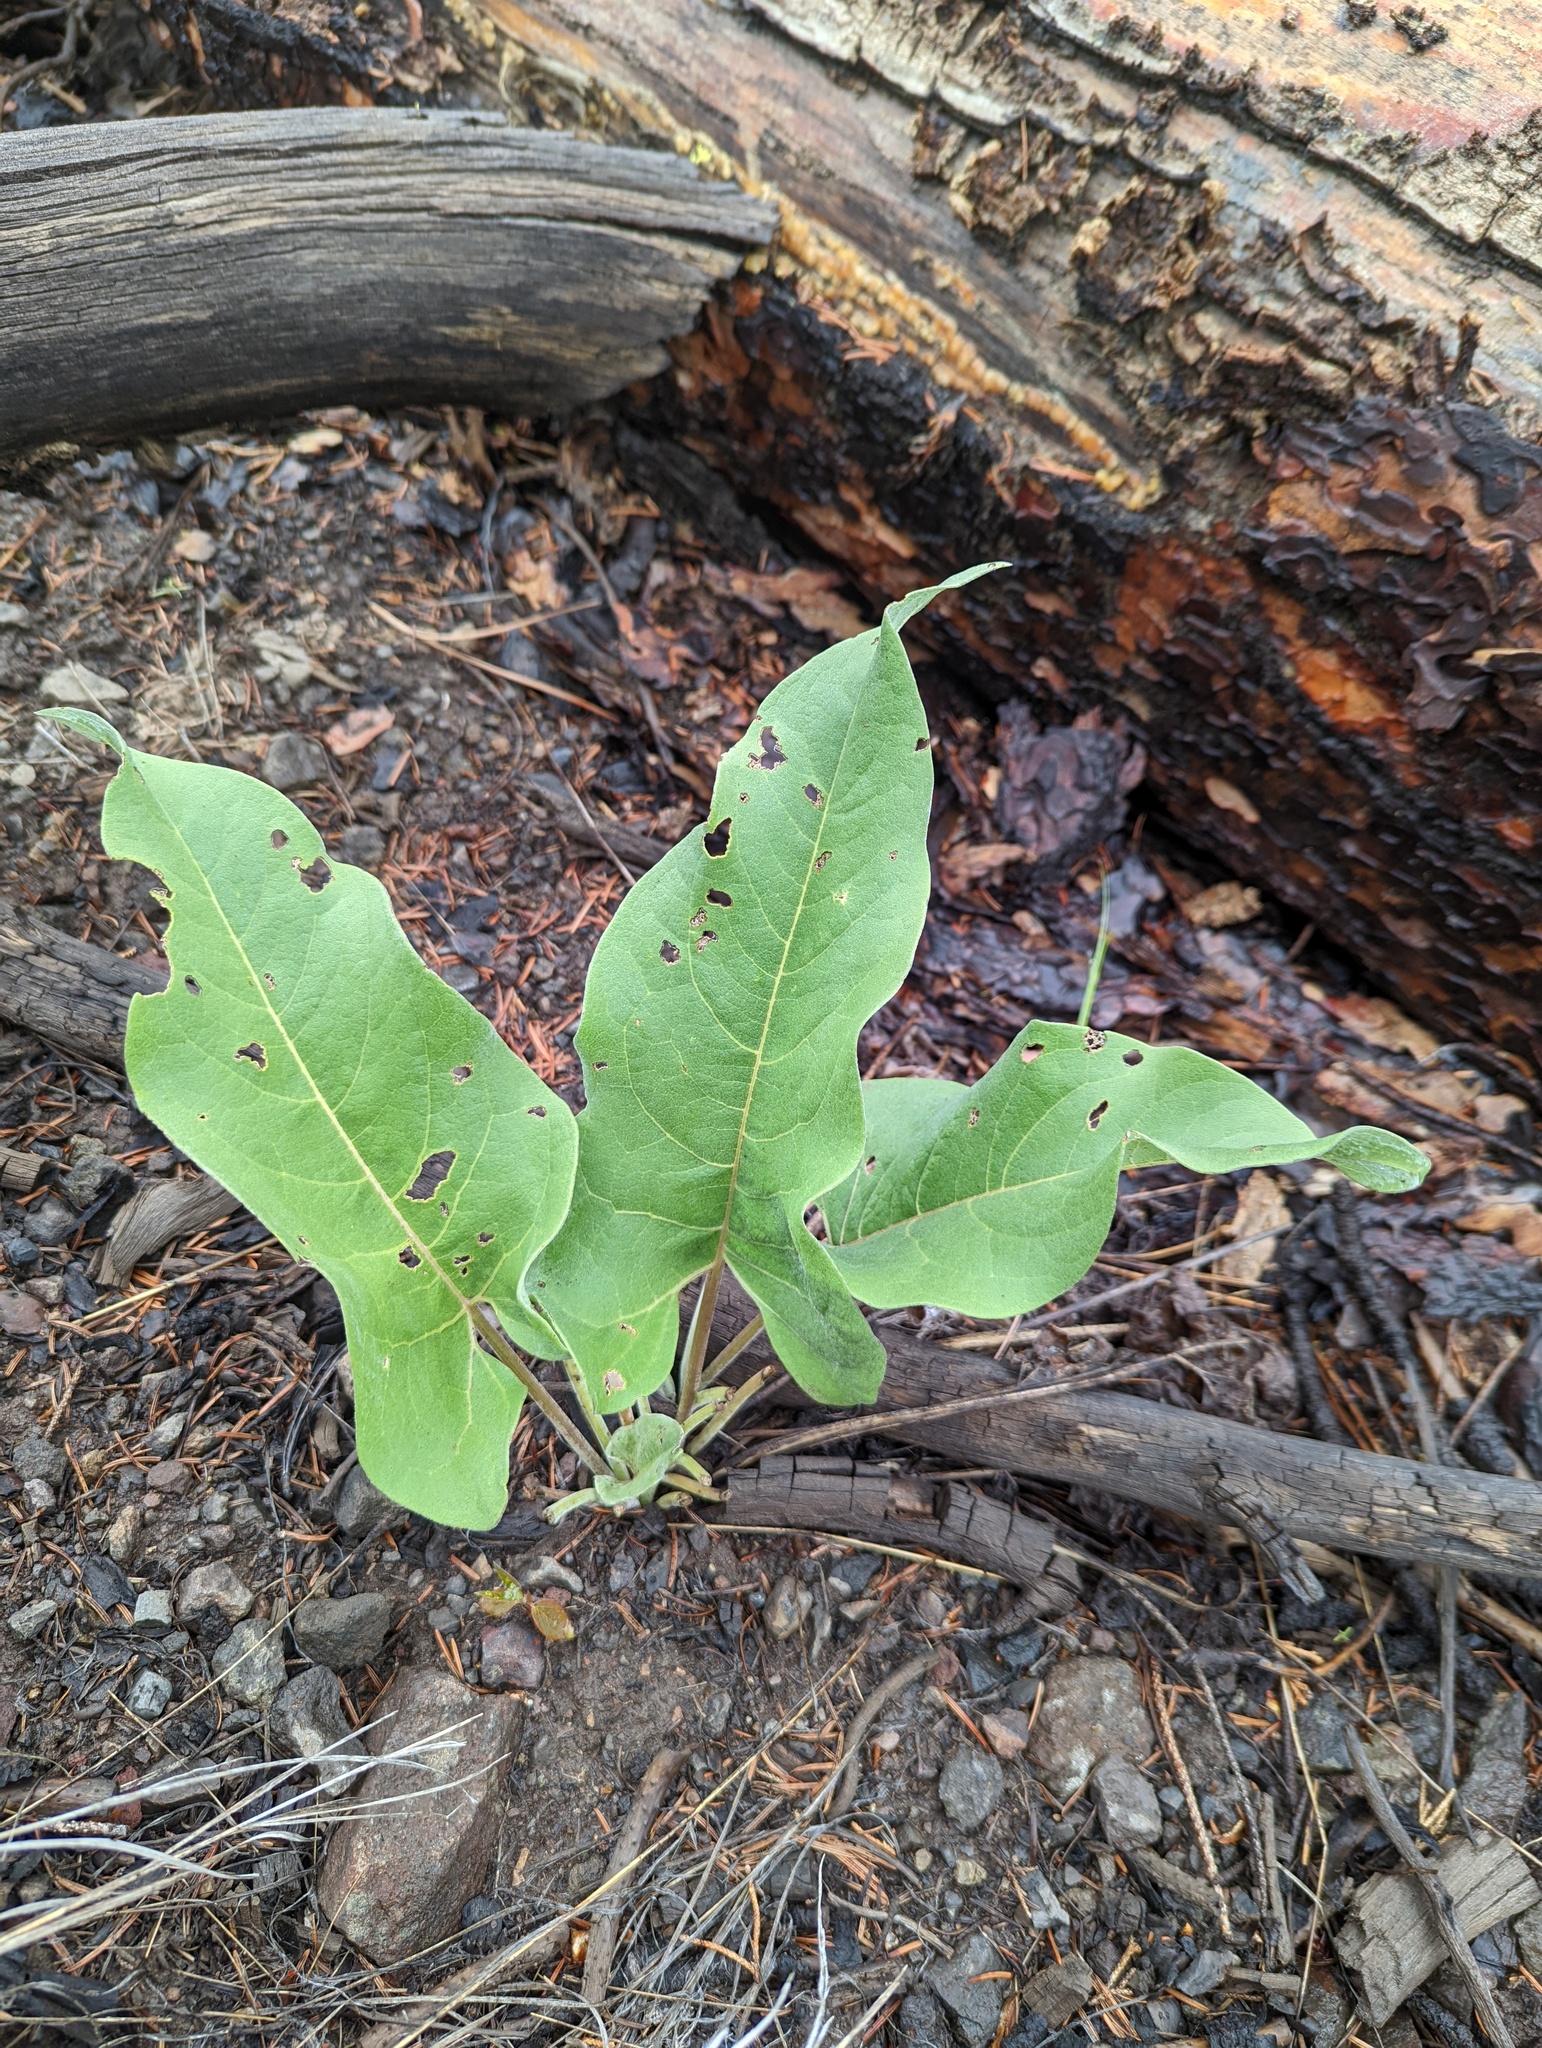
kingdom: Plantae
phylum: Tracheophyta
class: Magnoliopsida
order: Asterales
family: Asteraceae
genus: Wyethia
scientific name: Wyethia sagittata
